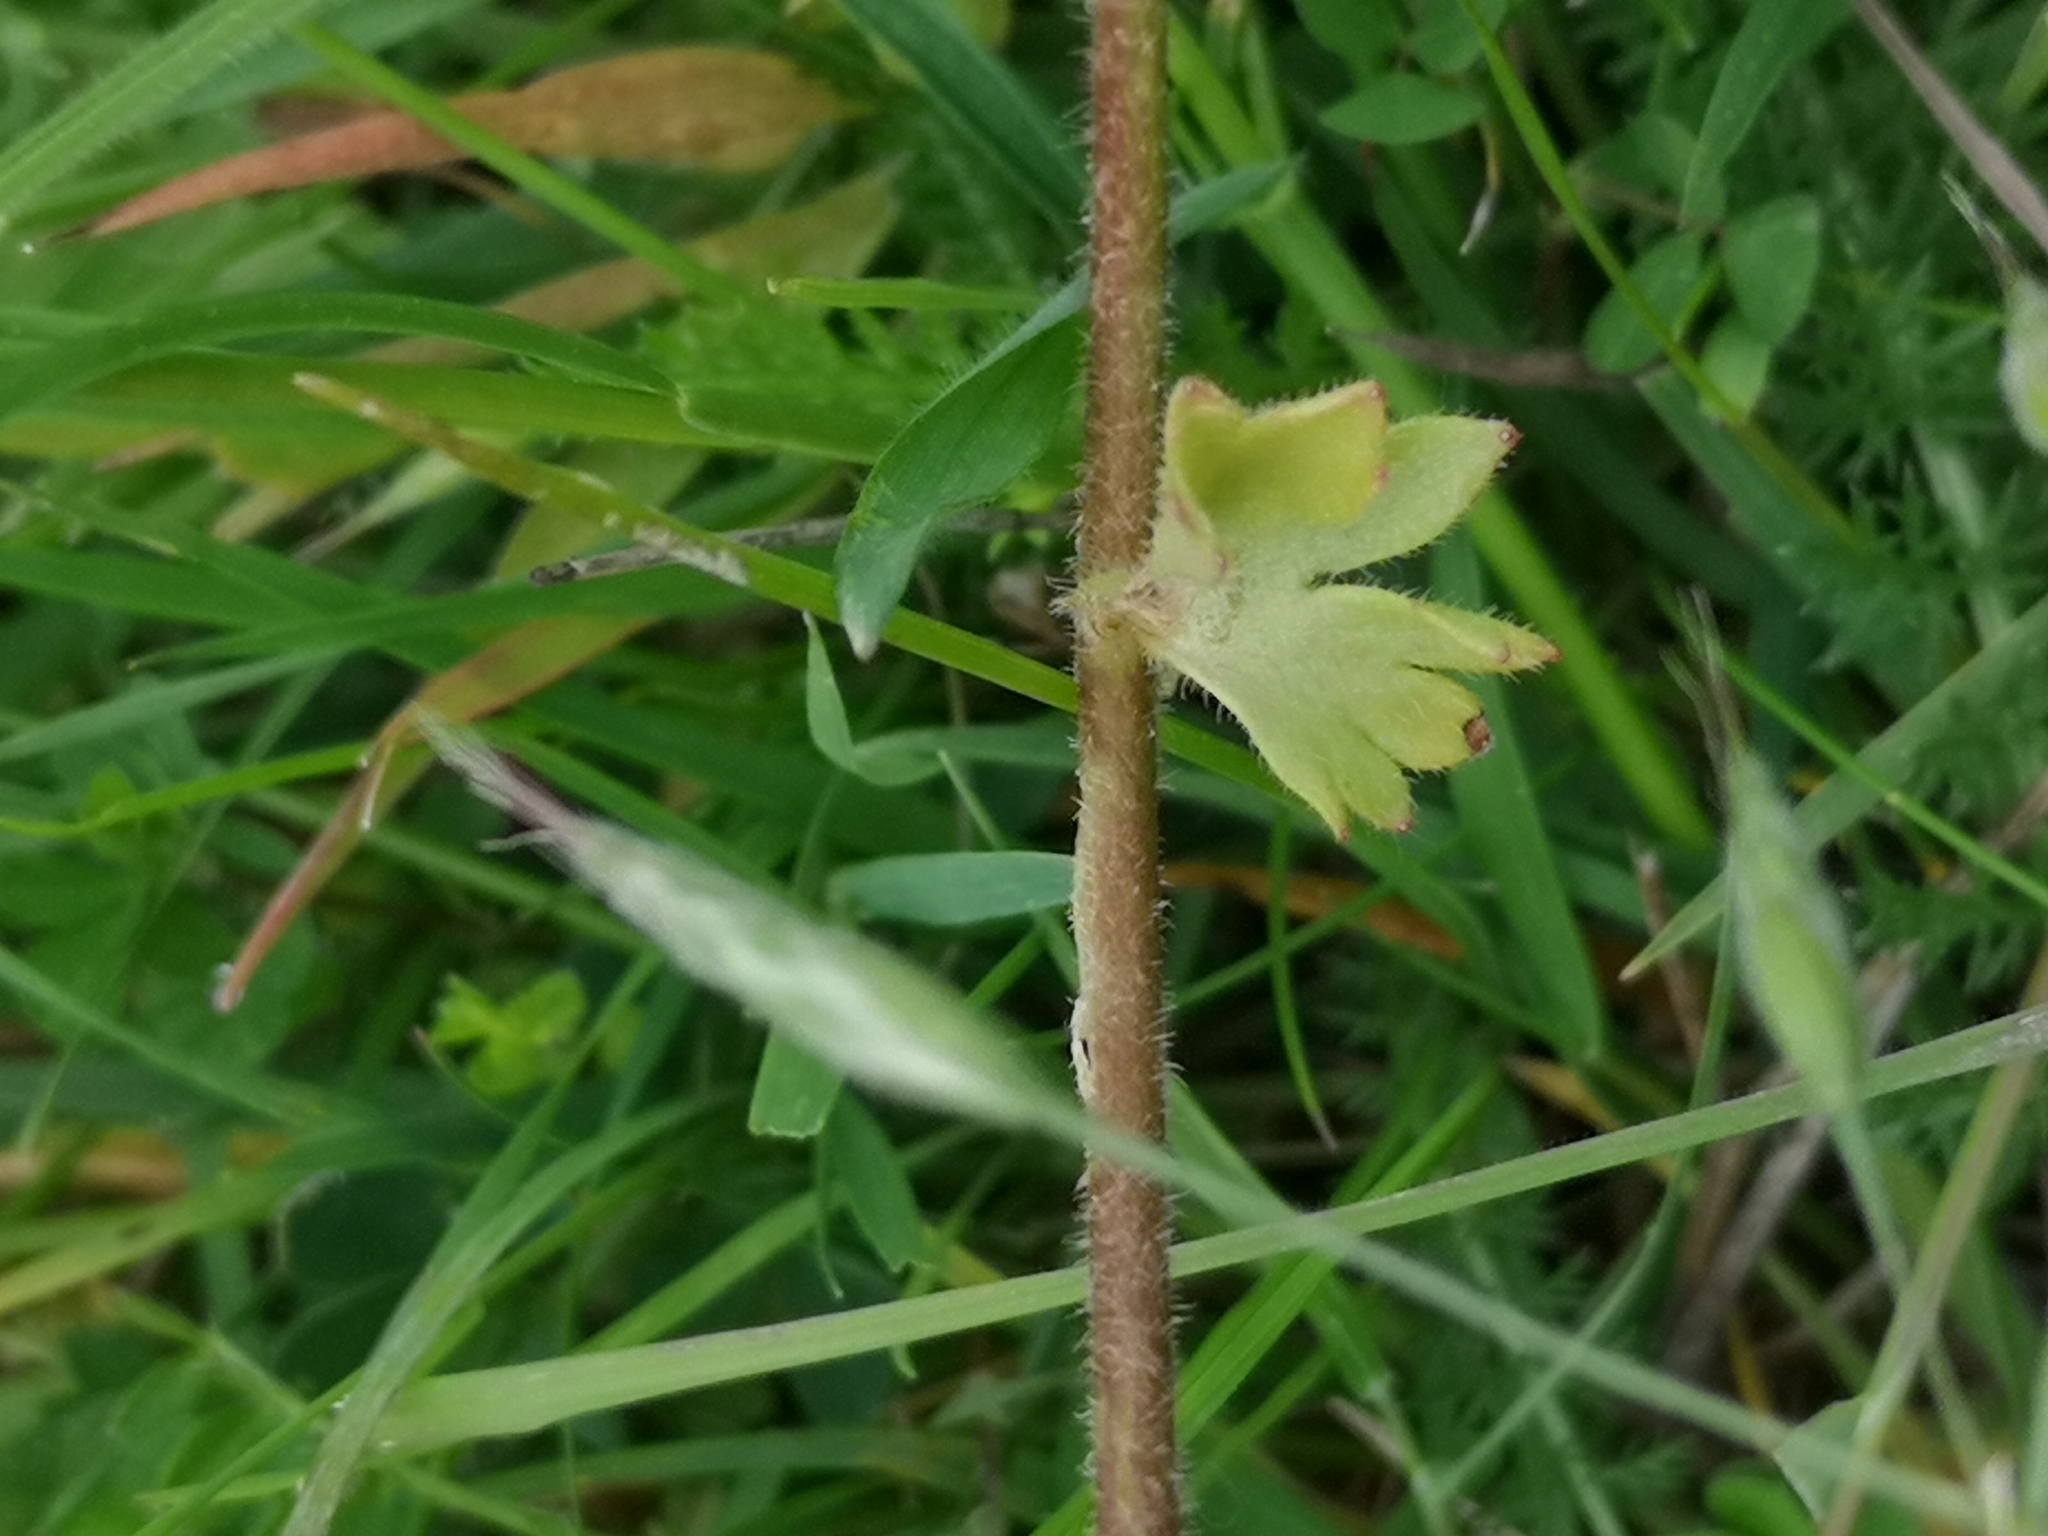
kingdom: Plantae
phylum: Tracheophyta
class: Magnoliopsida
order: Saxifragales
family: Saxifragaceae
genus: Saxifraga
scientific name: Saxifraga granulata
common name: Meadow saxifrage
